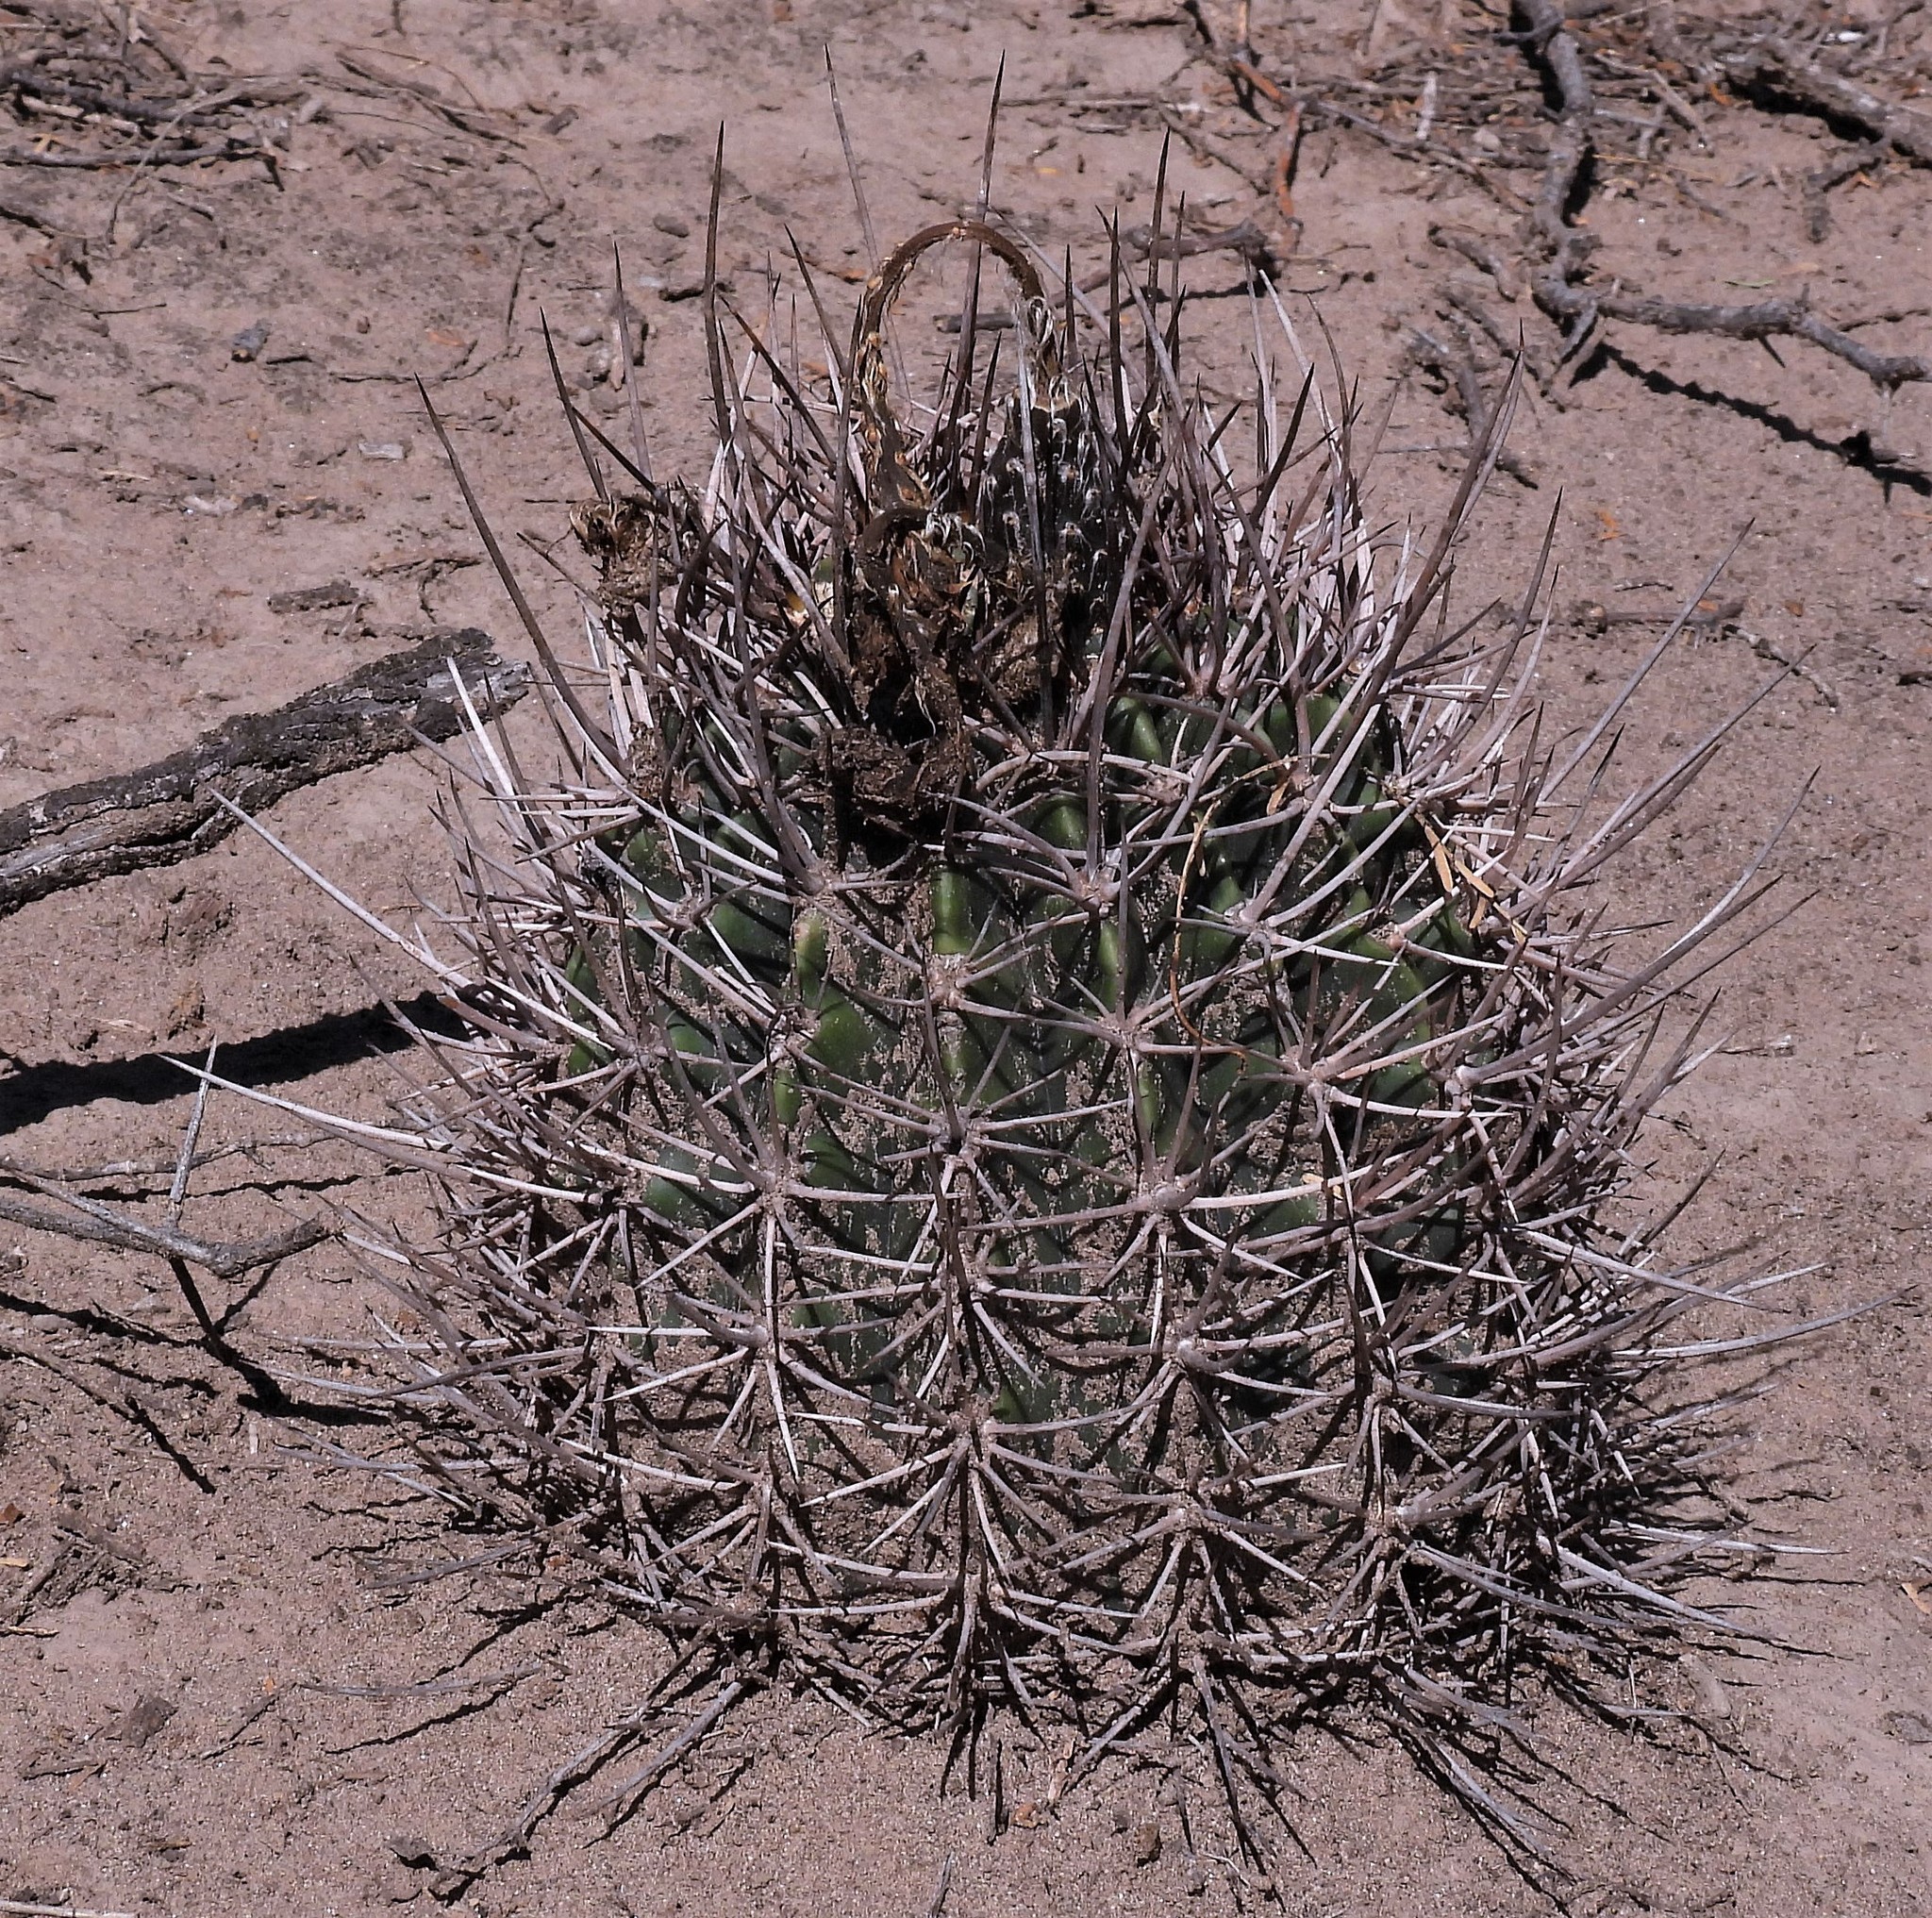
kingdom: Plantae
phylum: Tracheophyta
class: Magnoliopsida
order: Caryophyllales
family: Cactaceae
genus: Acanthocalycium
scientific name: Acanthocalycium leucanthum
